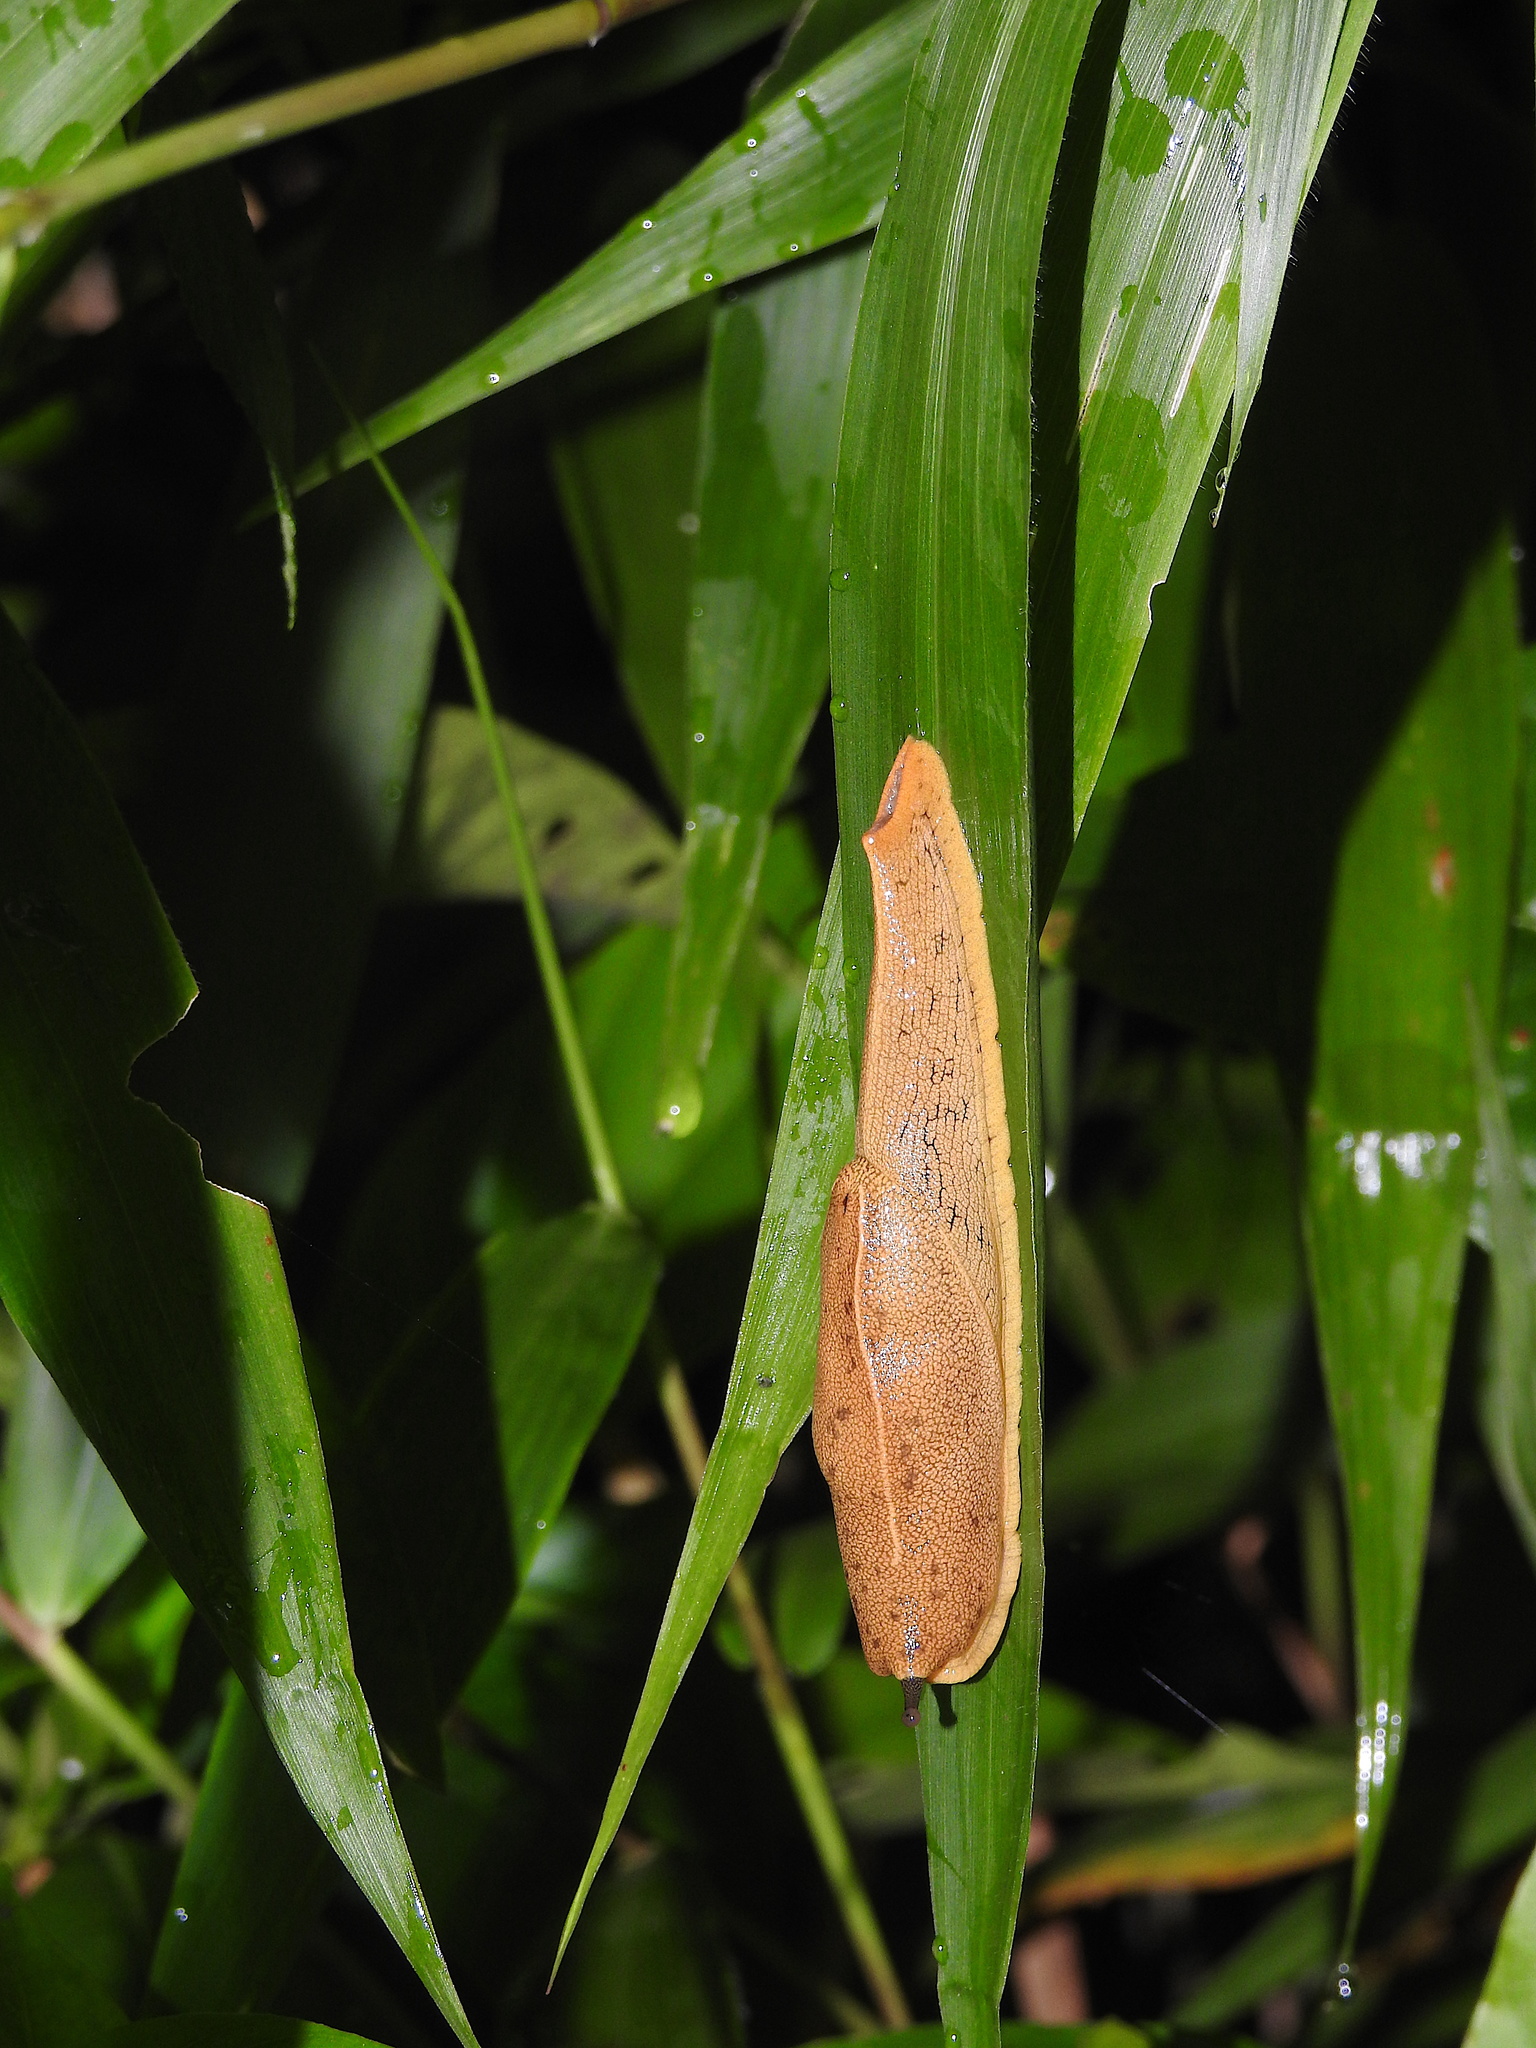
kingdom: Animalia
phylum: Mollusca
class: Gastropoda
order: Stylommatophora
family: Ariophantidae
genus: Mariaella
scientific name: Mariaella dussumieri
